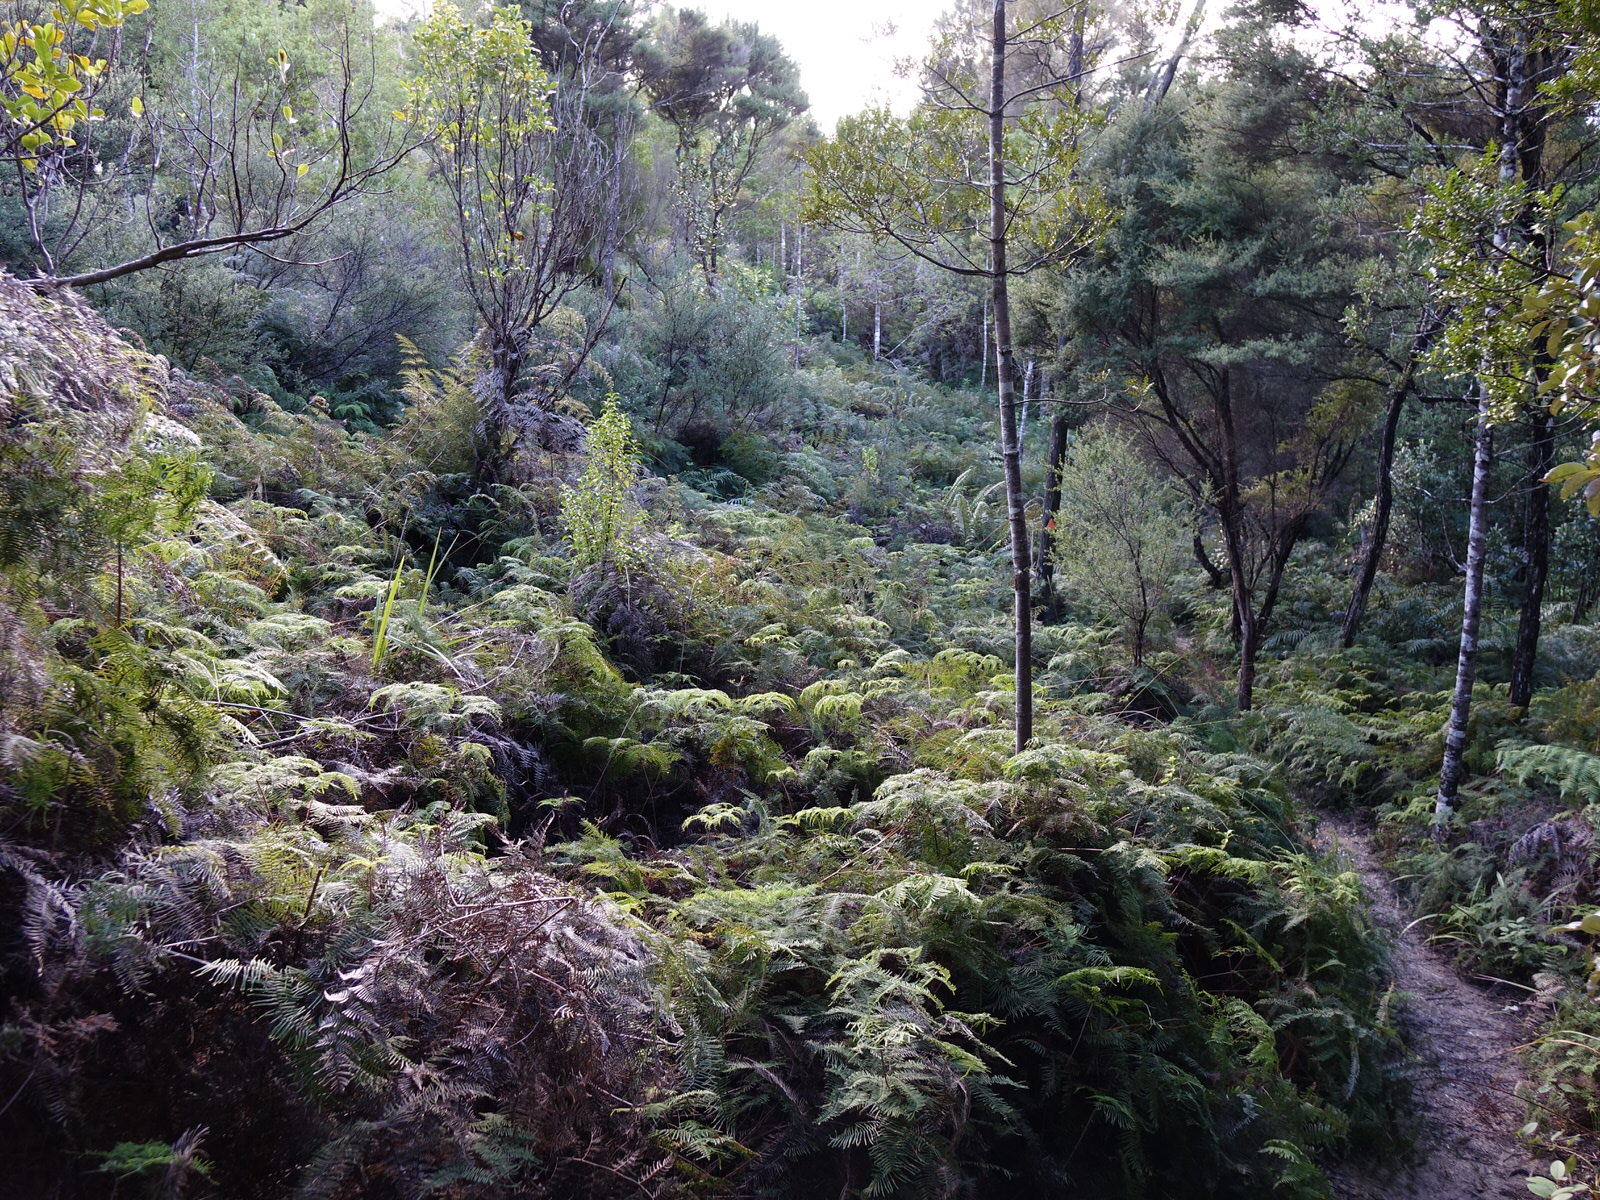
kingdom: Plantae
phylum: Tracheophyta
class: Polypodiopsida
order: Gleicheniales
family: Gleicheniaceae
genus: Gleichenia
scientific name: Gleichenia dicarpa
